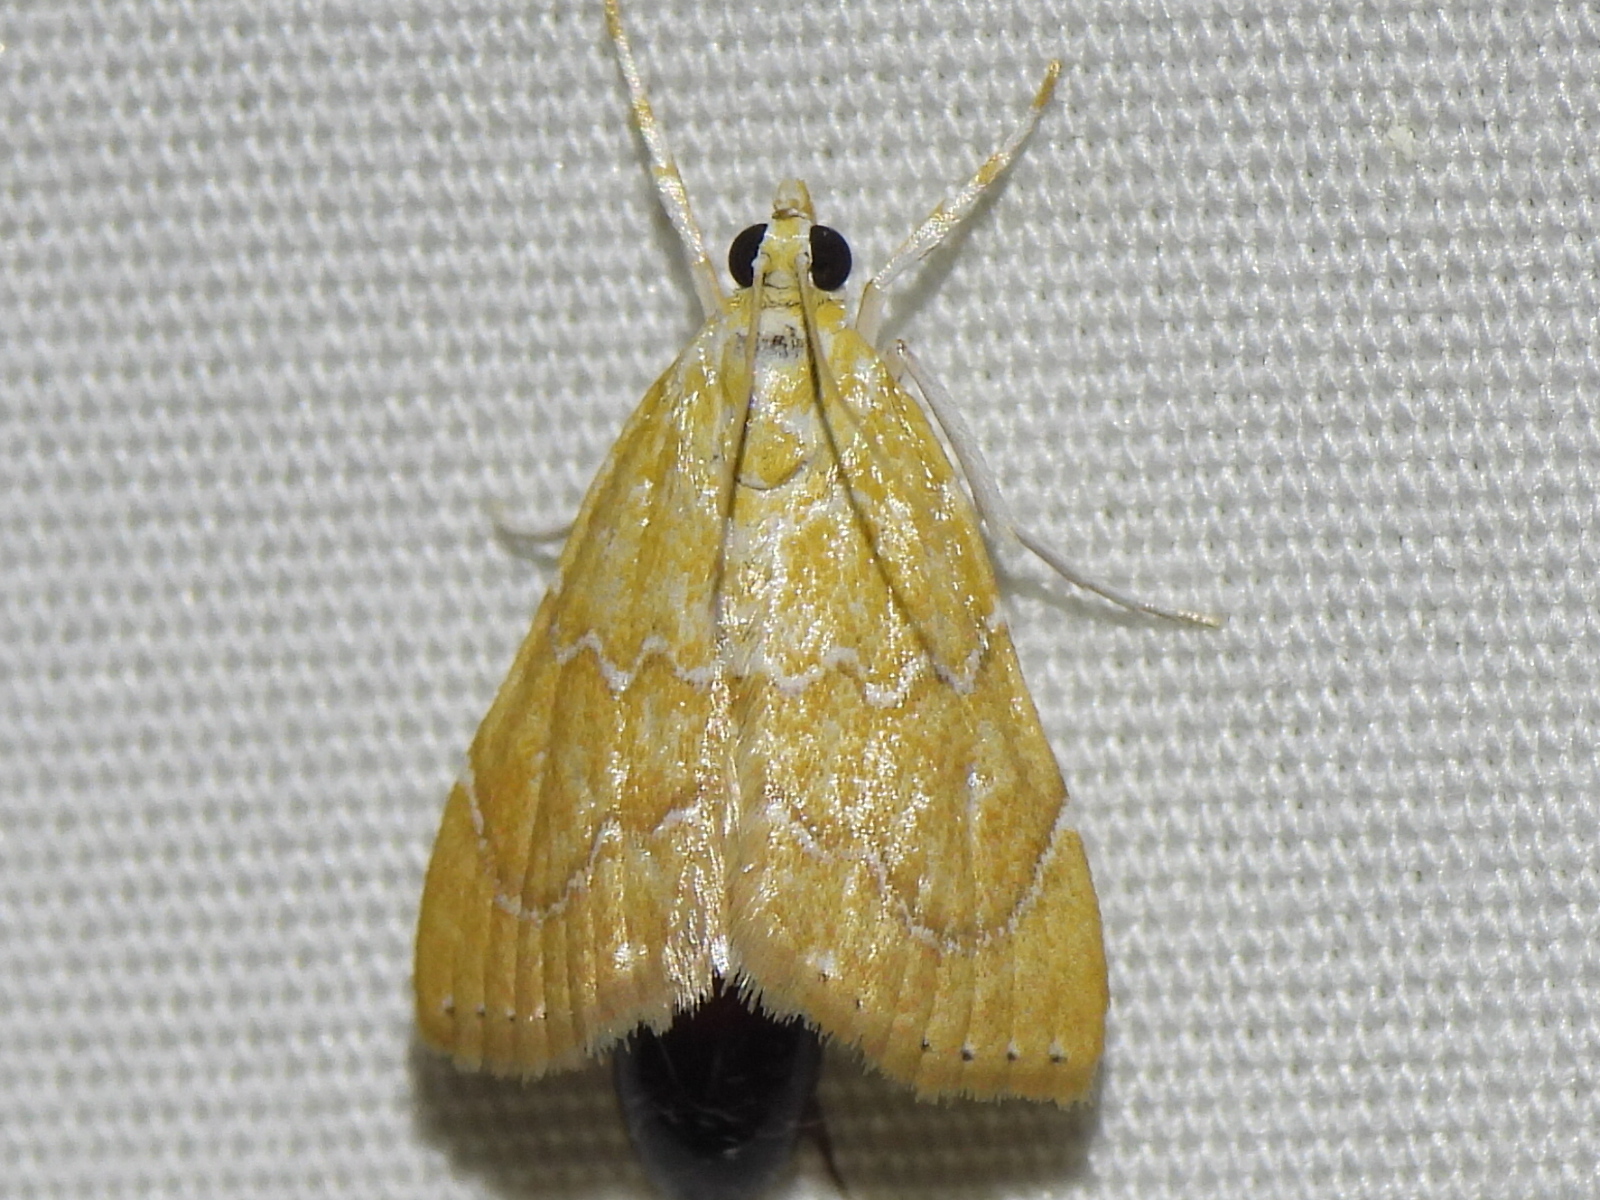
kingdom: Animalia
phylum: Arthropoda
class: Insecta
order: Lepidoptera
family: Crambidae
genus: Glaphyria
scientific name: Glaphyria sesquistrialis
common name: White-roped glaphyria
